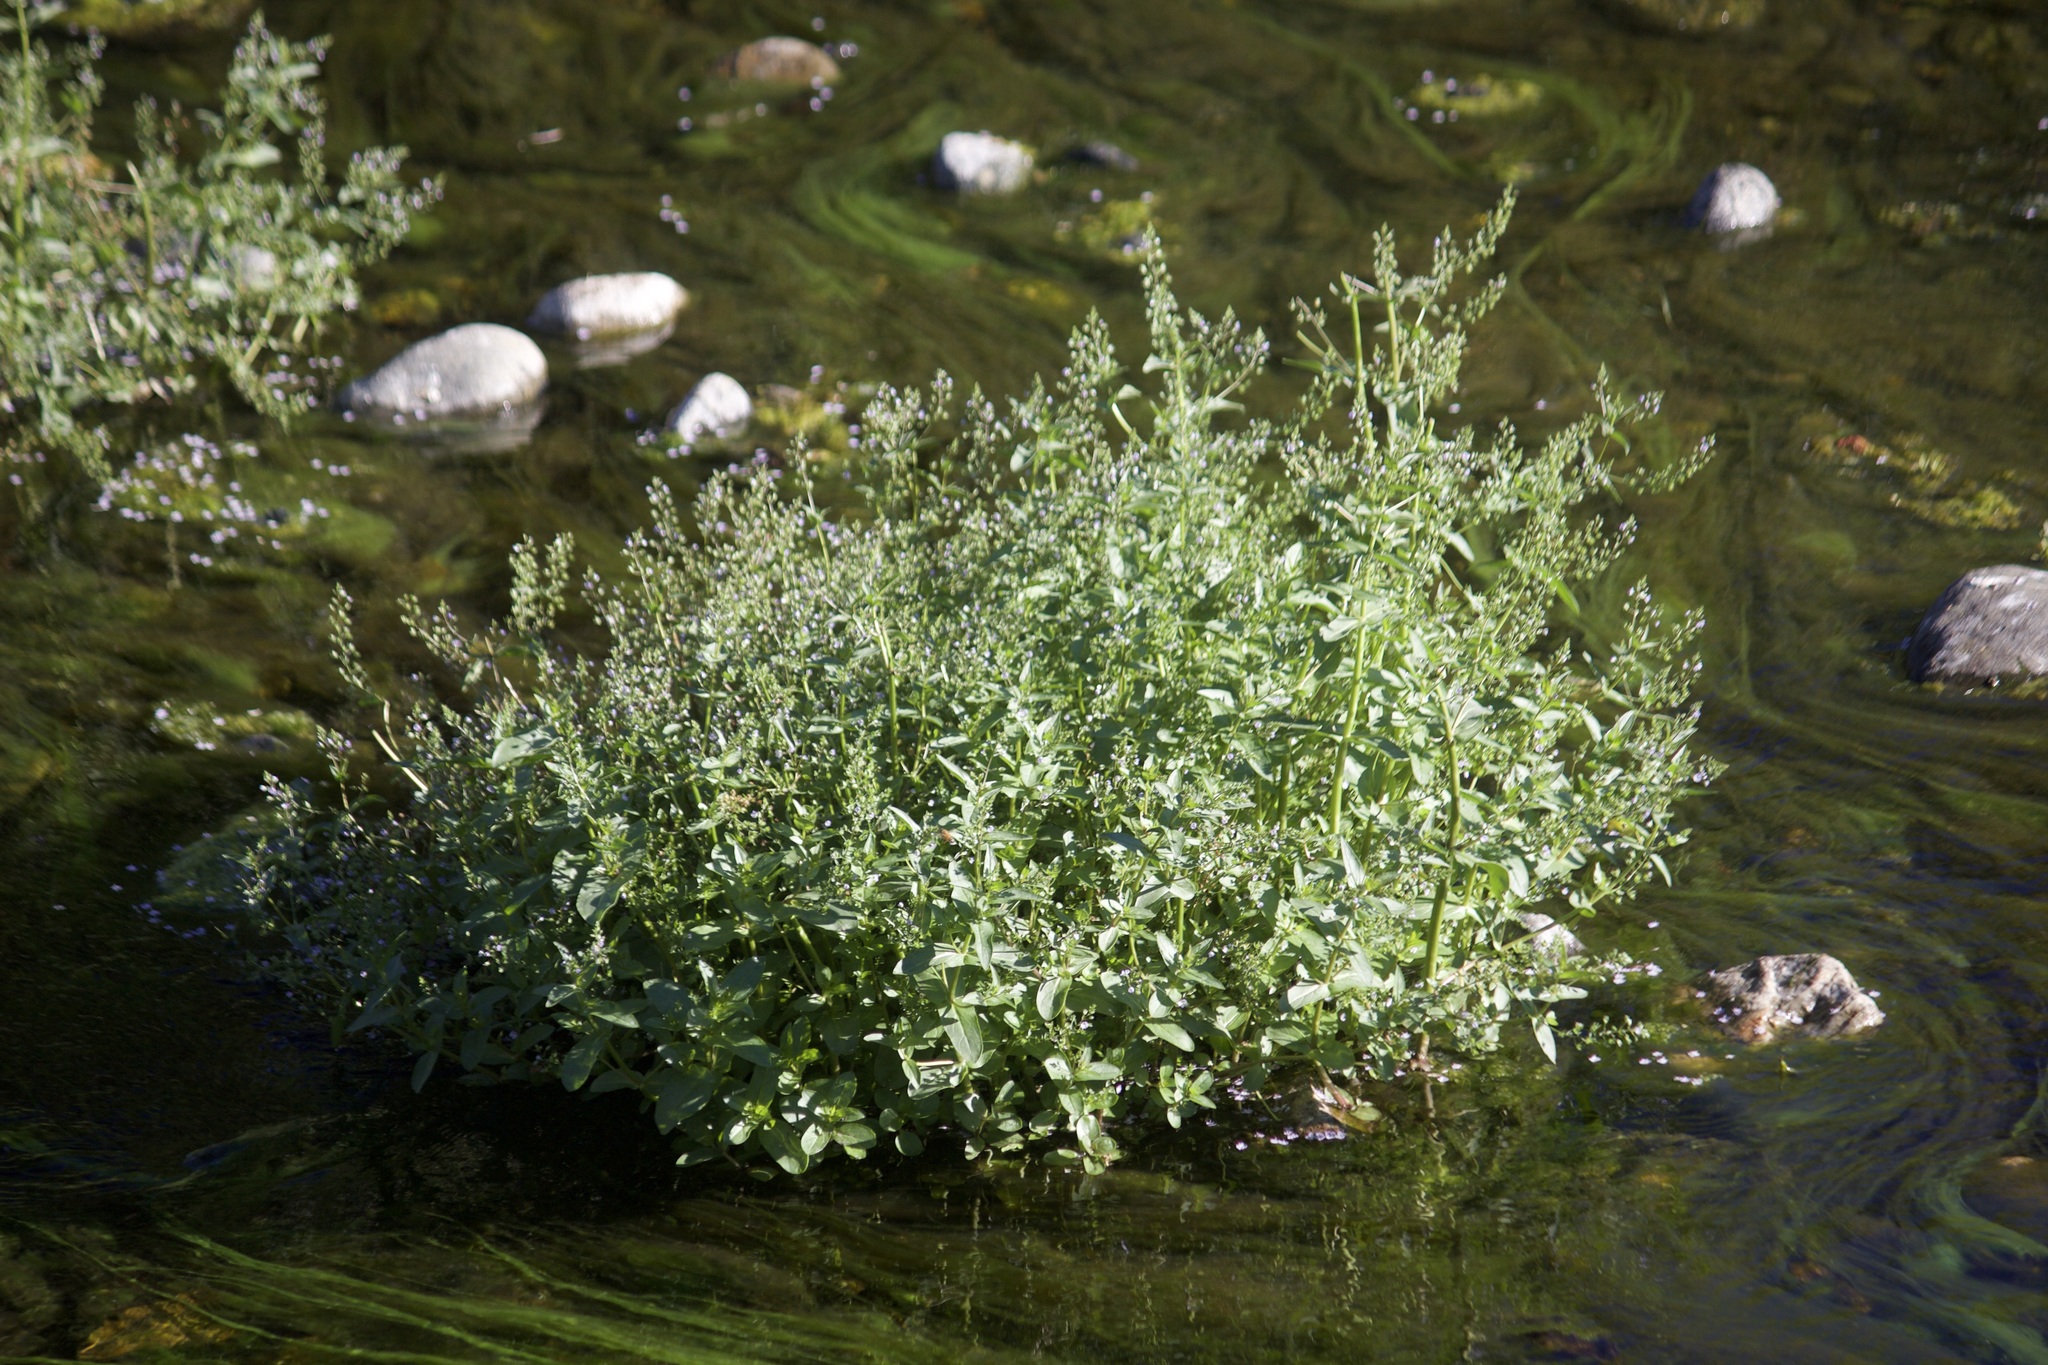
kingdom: Plantae
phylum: Tracheophyta
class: Magnoliopsida
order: Lamiales
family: Plantaginaceae
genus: Veronica
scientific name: Veronica anagallis-aquatica
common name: Water speedwell
